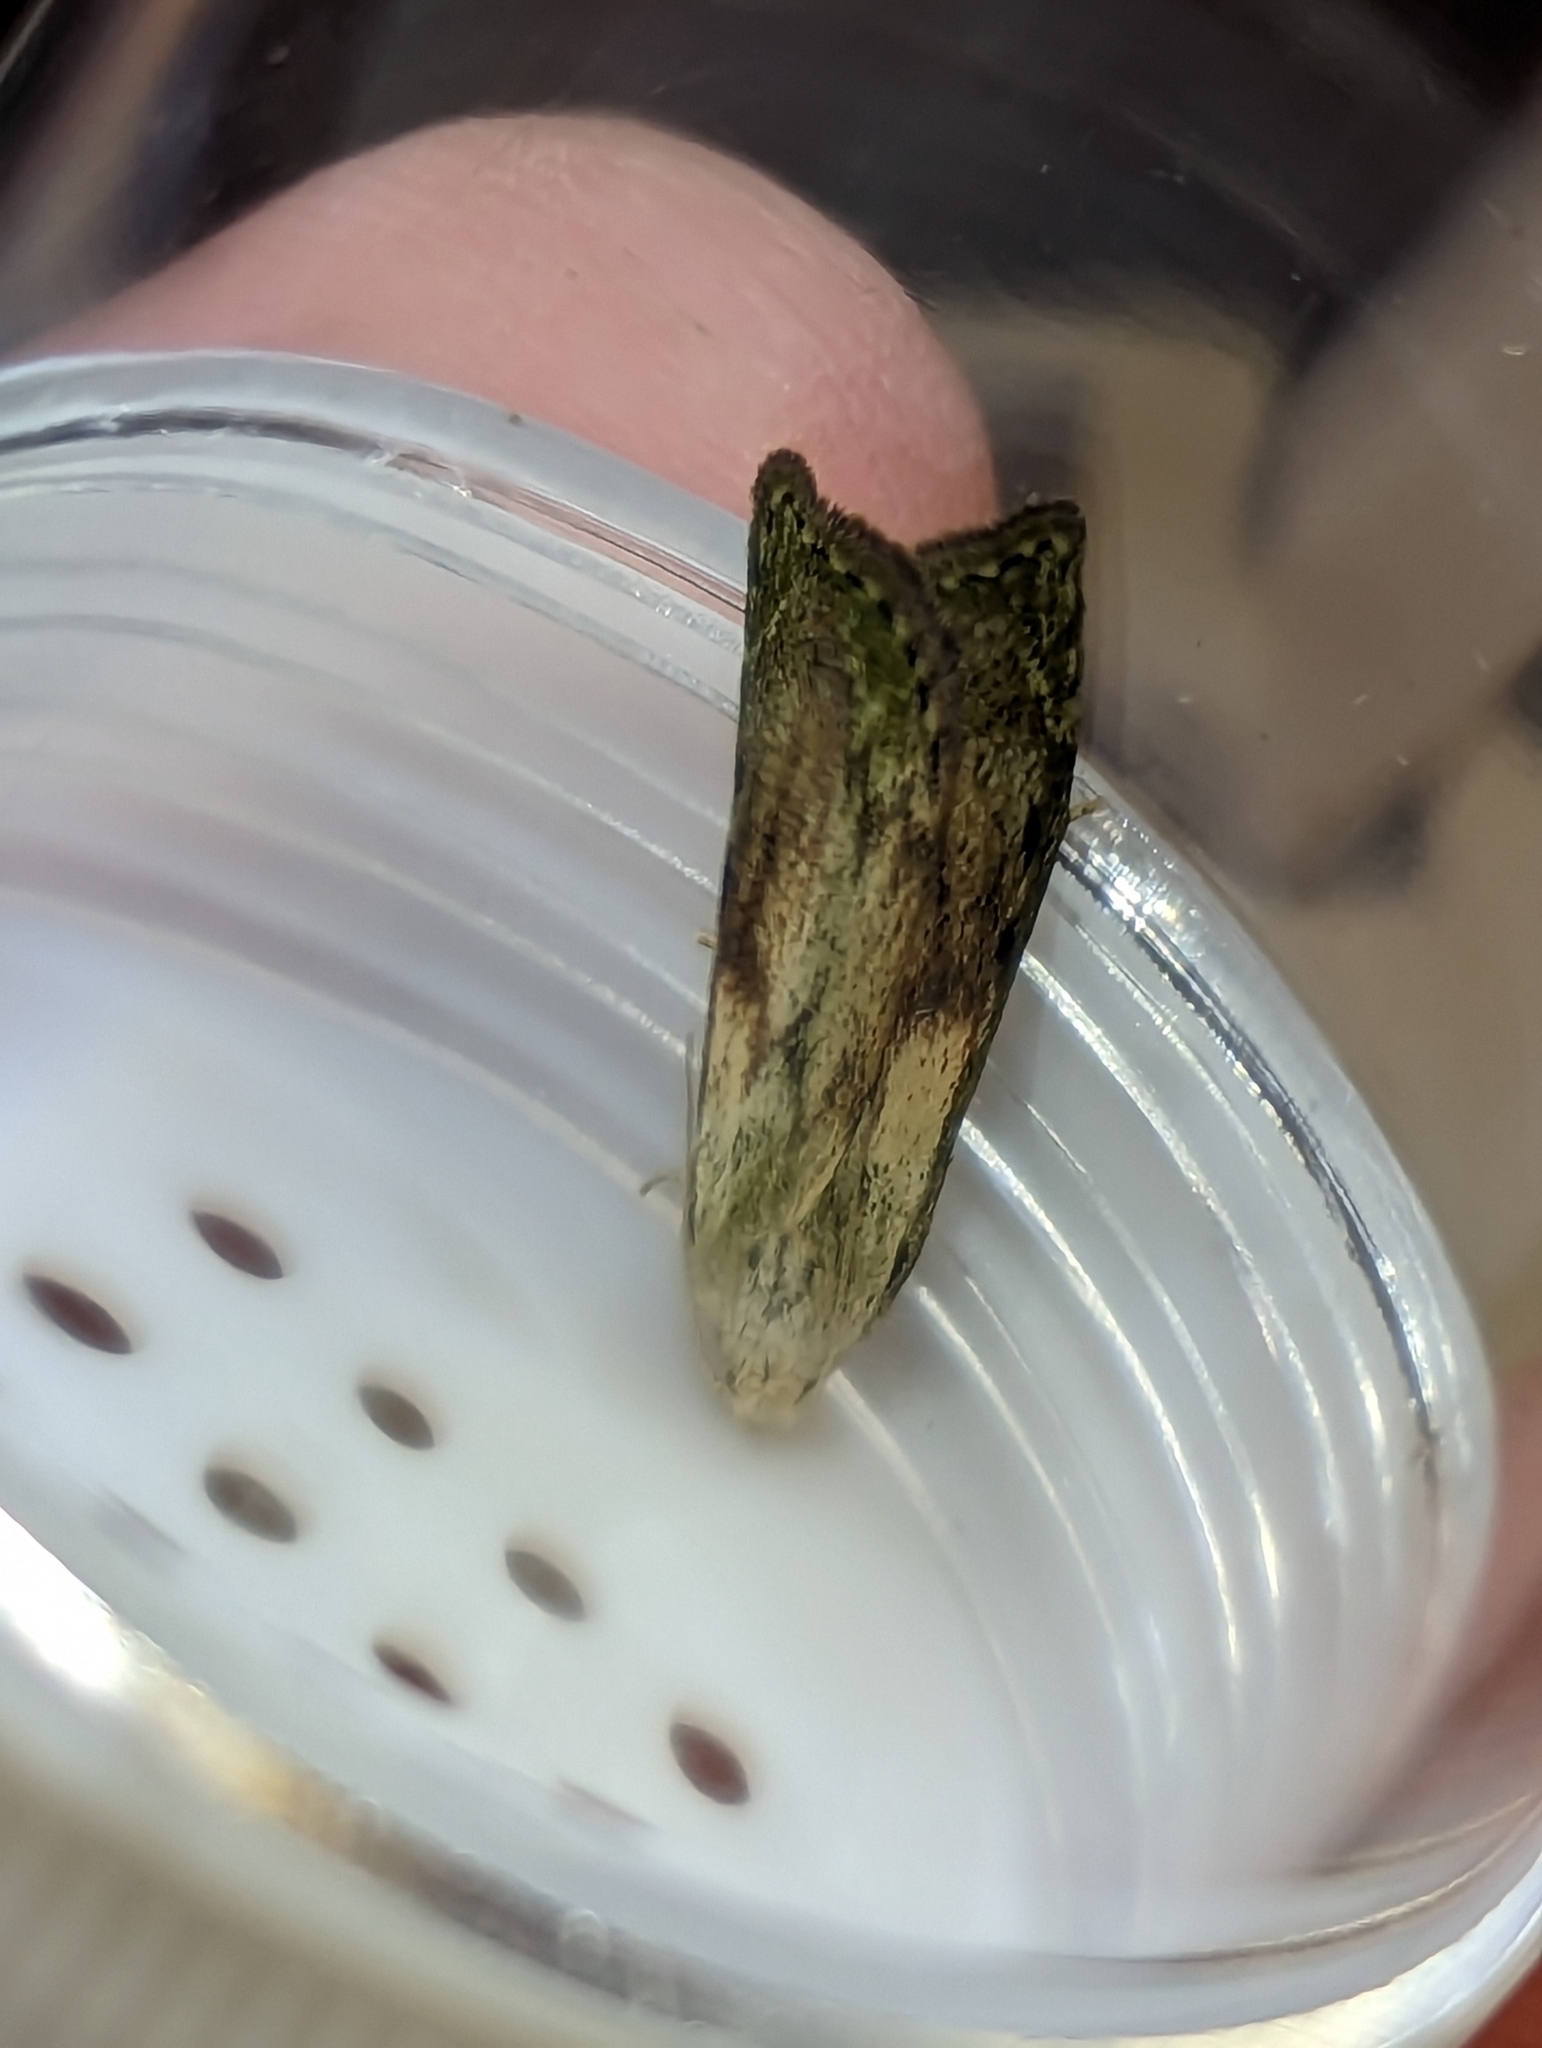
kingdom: Animalia
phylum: Arthropoda
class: Insecta
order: Lepidoptera
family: Pyralidae
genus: Aphomia
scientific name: Aphomia sociella
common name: Bee moth
